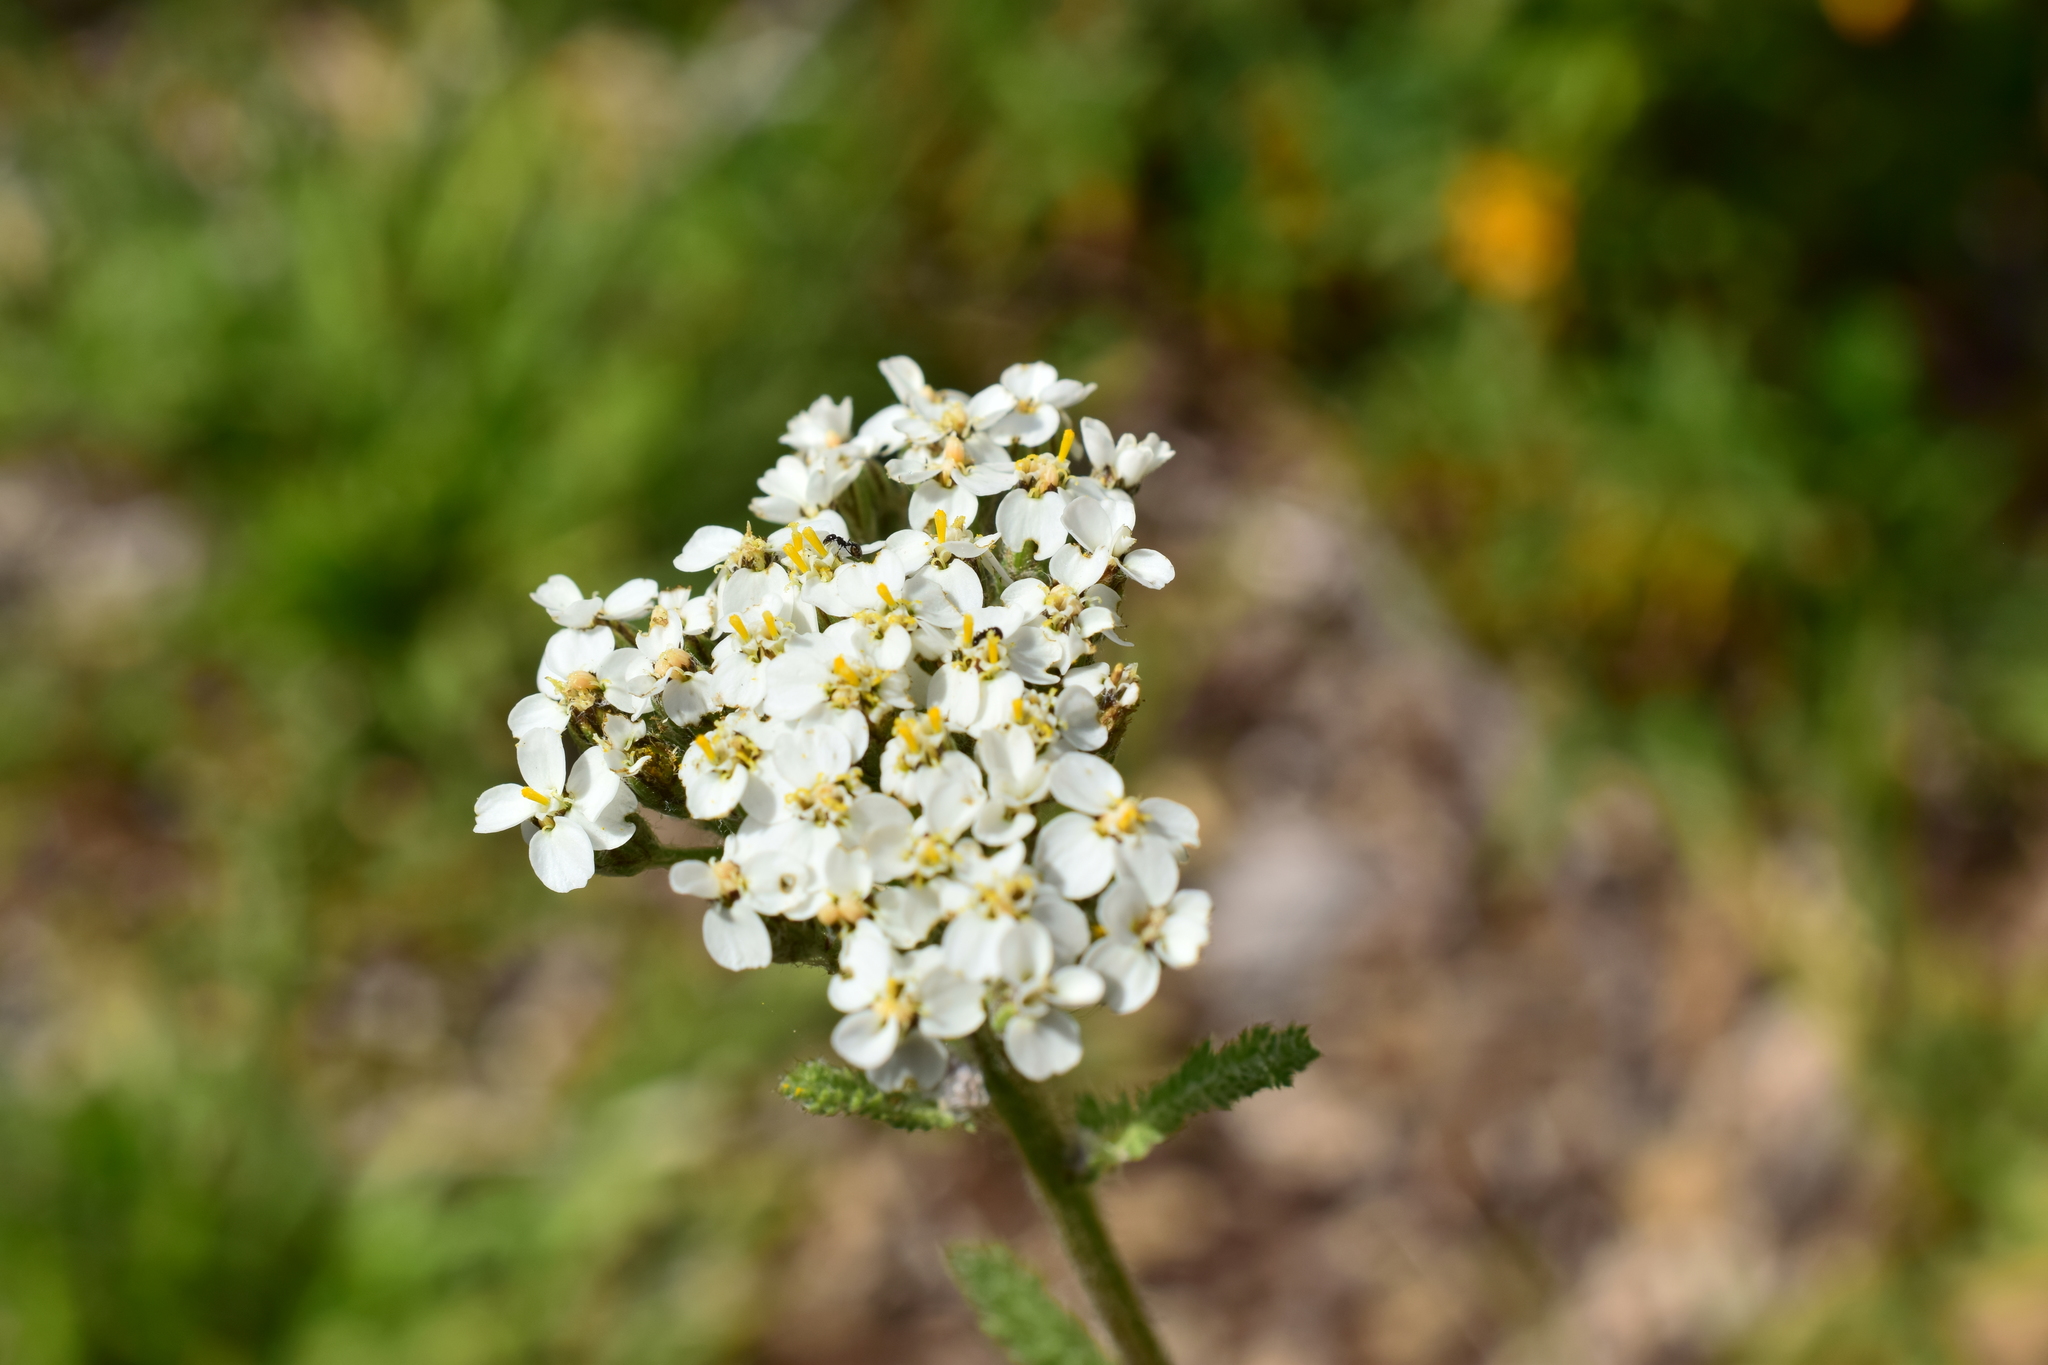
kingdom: Plantae
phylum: Tracheophyta
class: Magnoliopsida
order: Asterales
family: Asteraceae
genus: Achillea
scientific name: Achillea millefolium
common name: Yarrow
